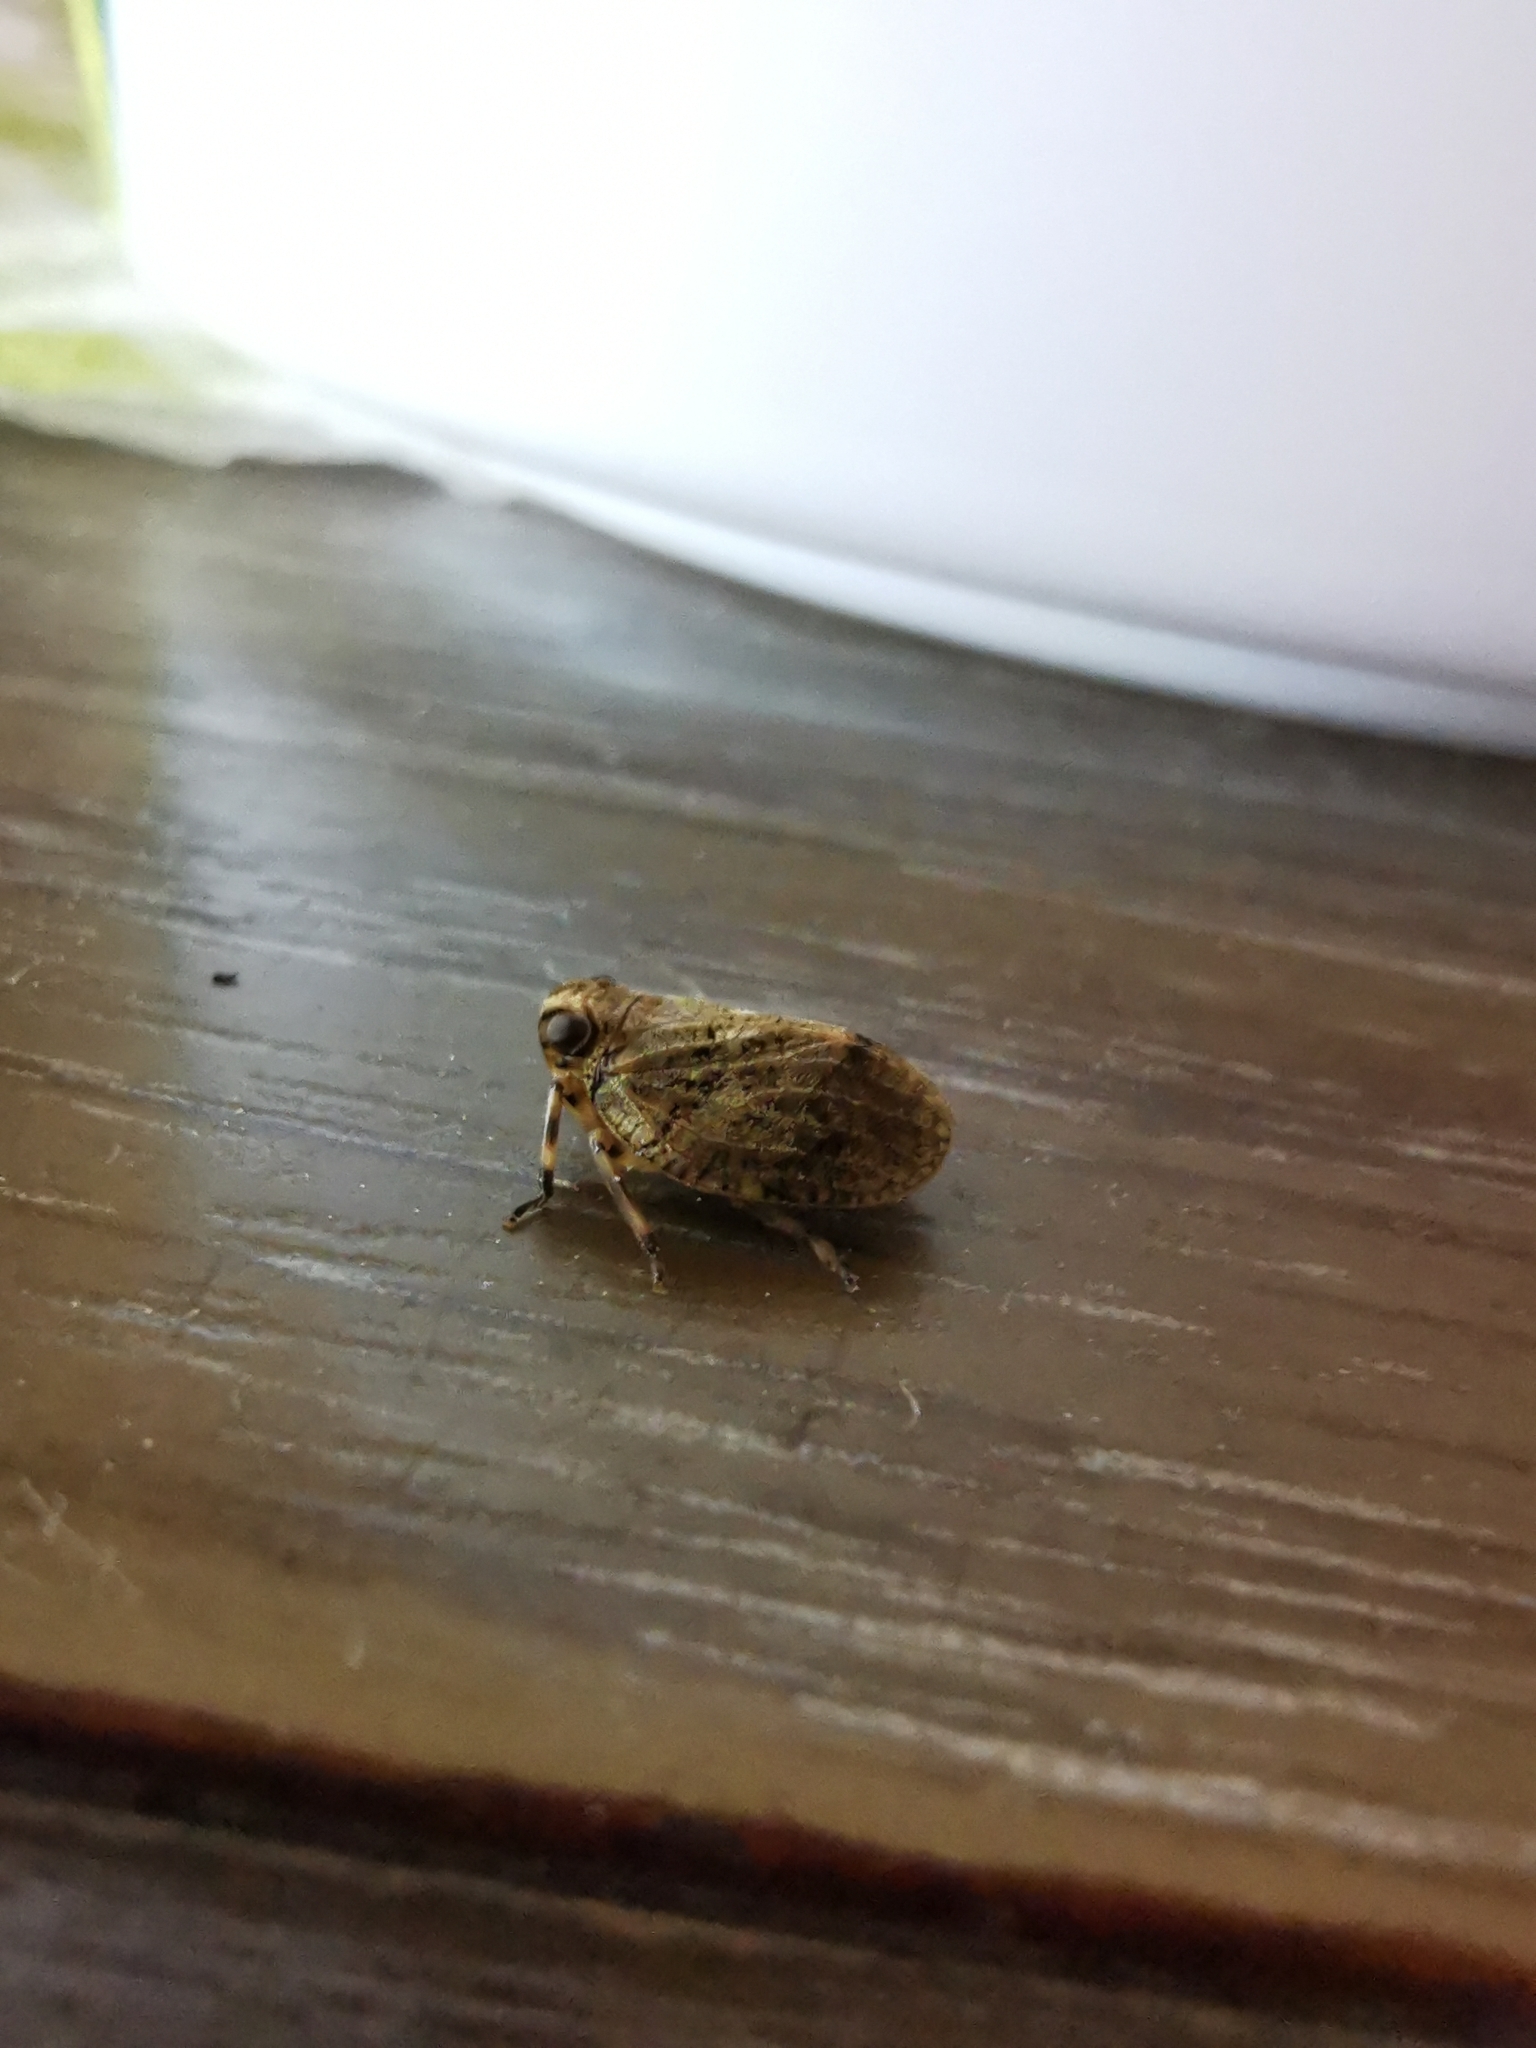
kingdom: Animalia
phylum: Arthropoda
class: Insecta
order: Hemiptera
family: Issidae
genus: Issus
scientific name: Issus muscaeformis
